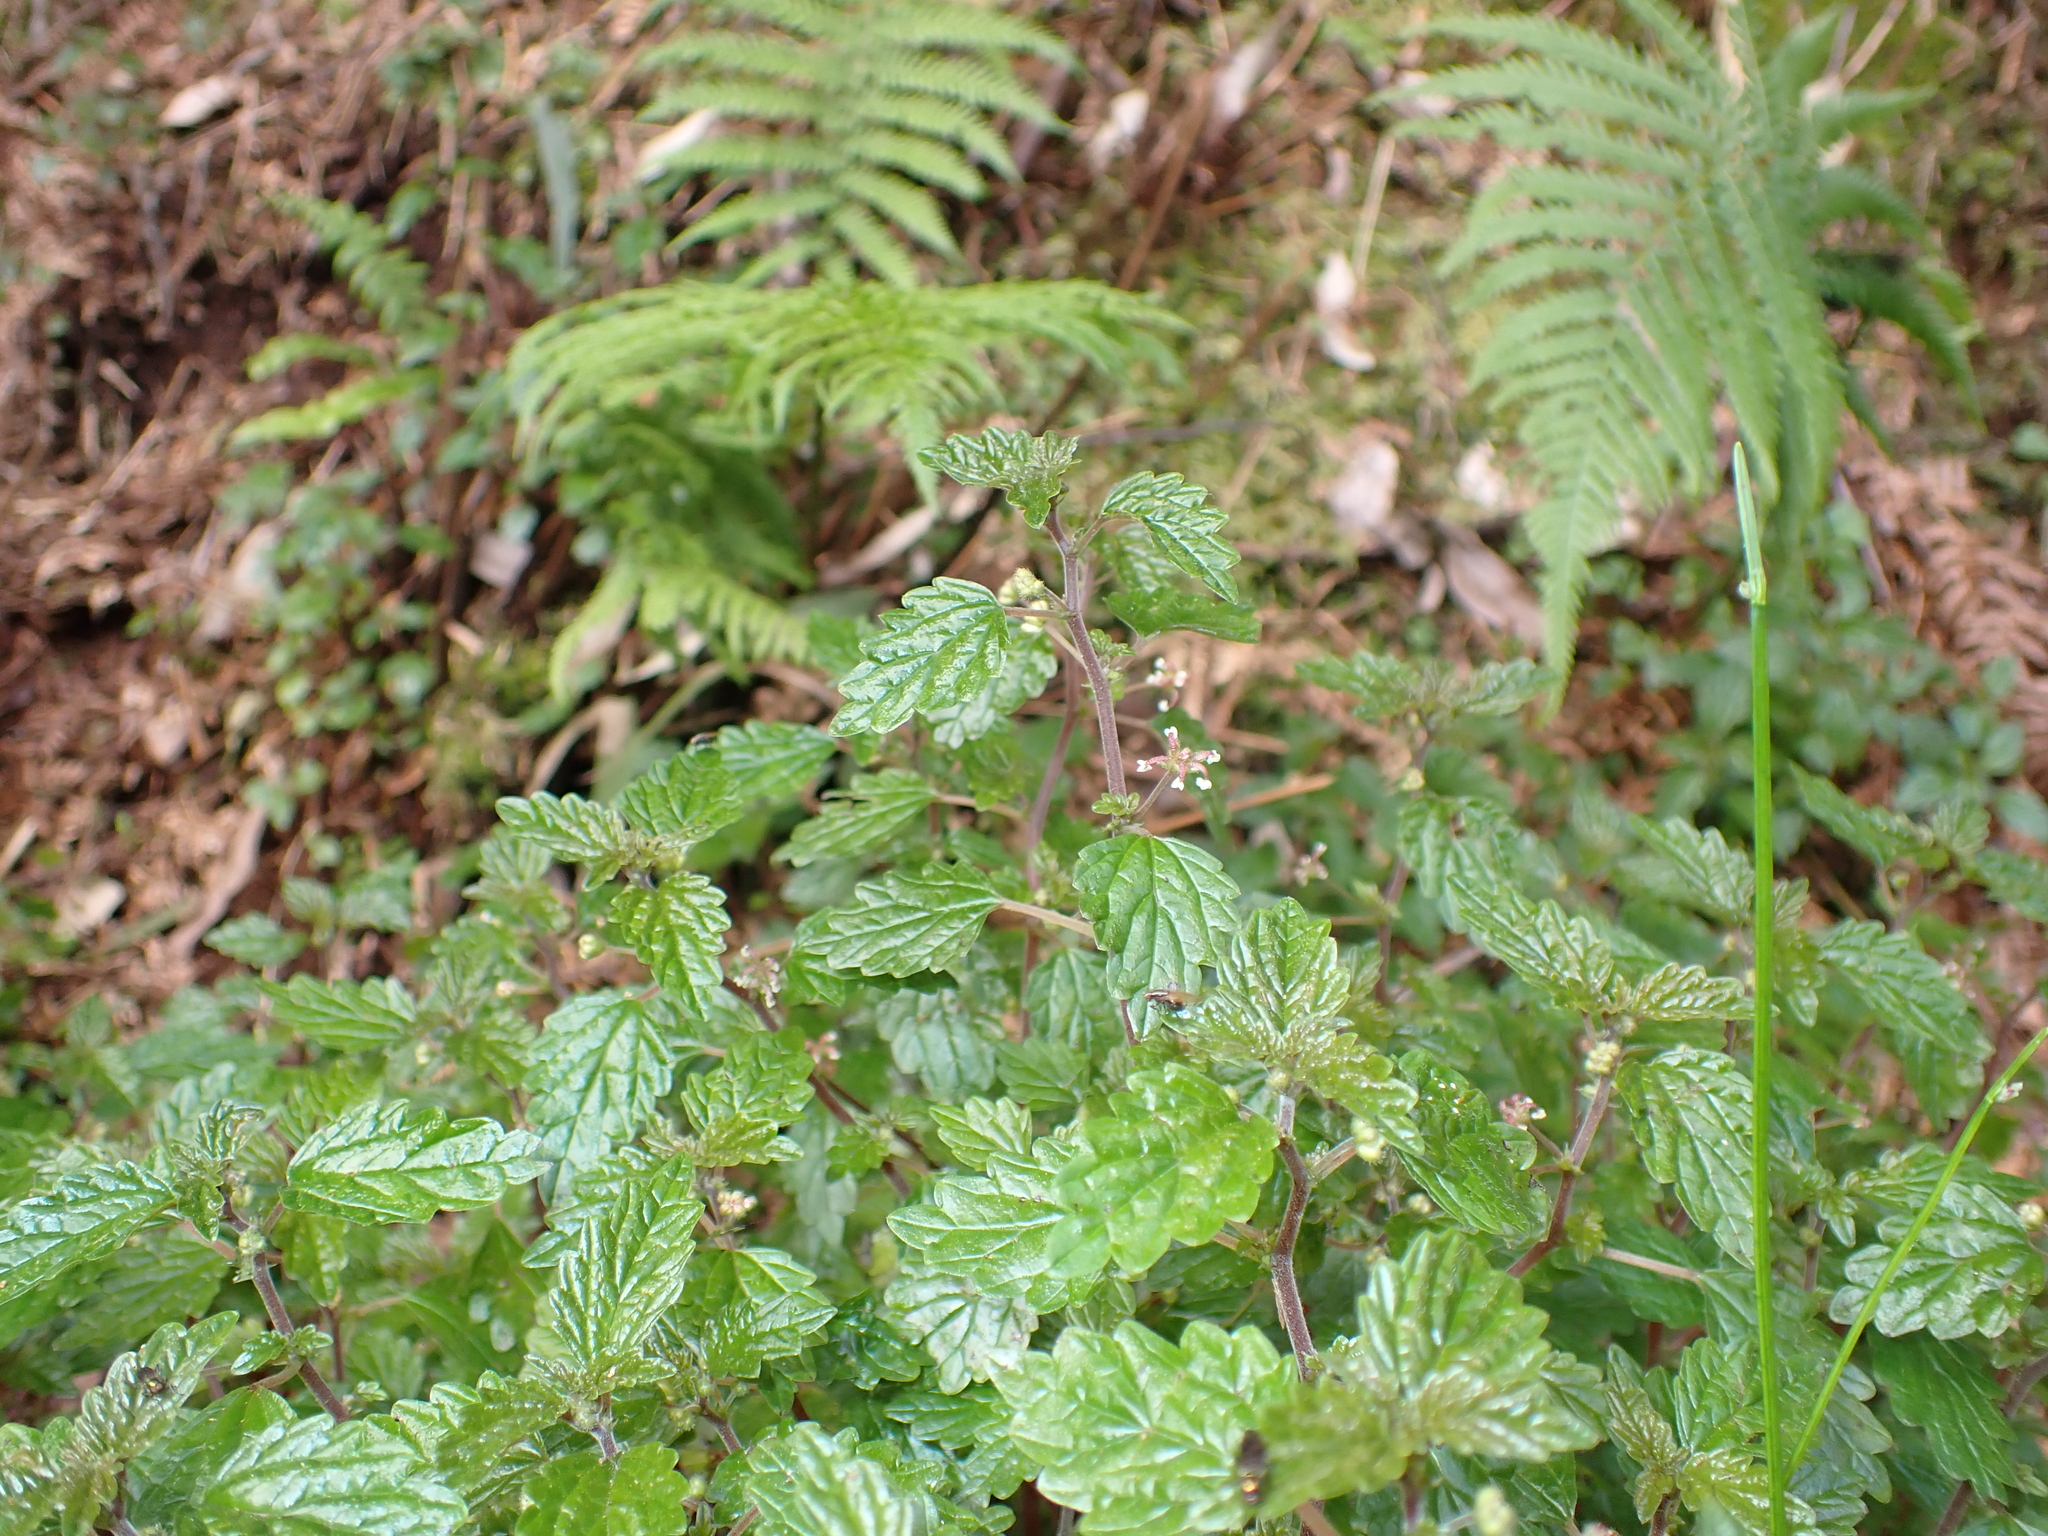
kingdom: Plantae
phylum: Tracheophyta
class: Magnoliopsida
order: Rosales
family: Urticaceae
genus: Australina
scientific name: Australina pusilla
